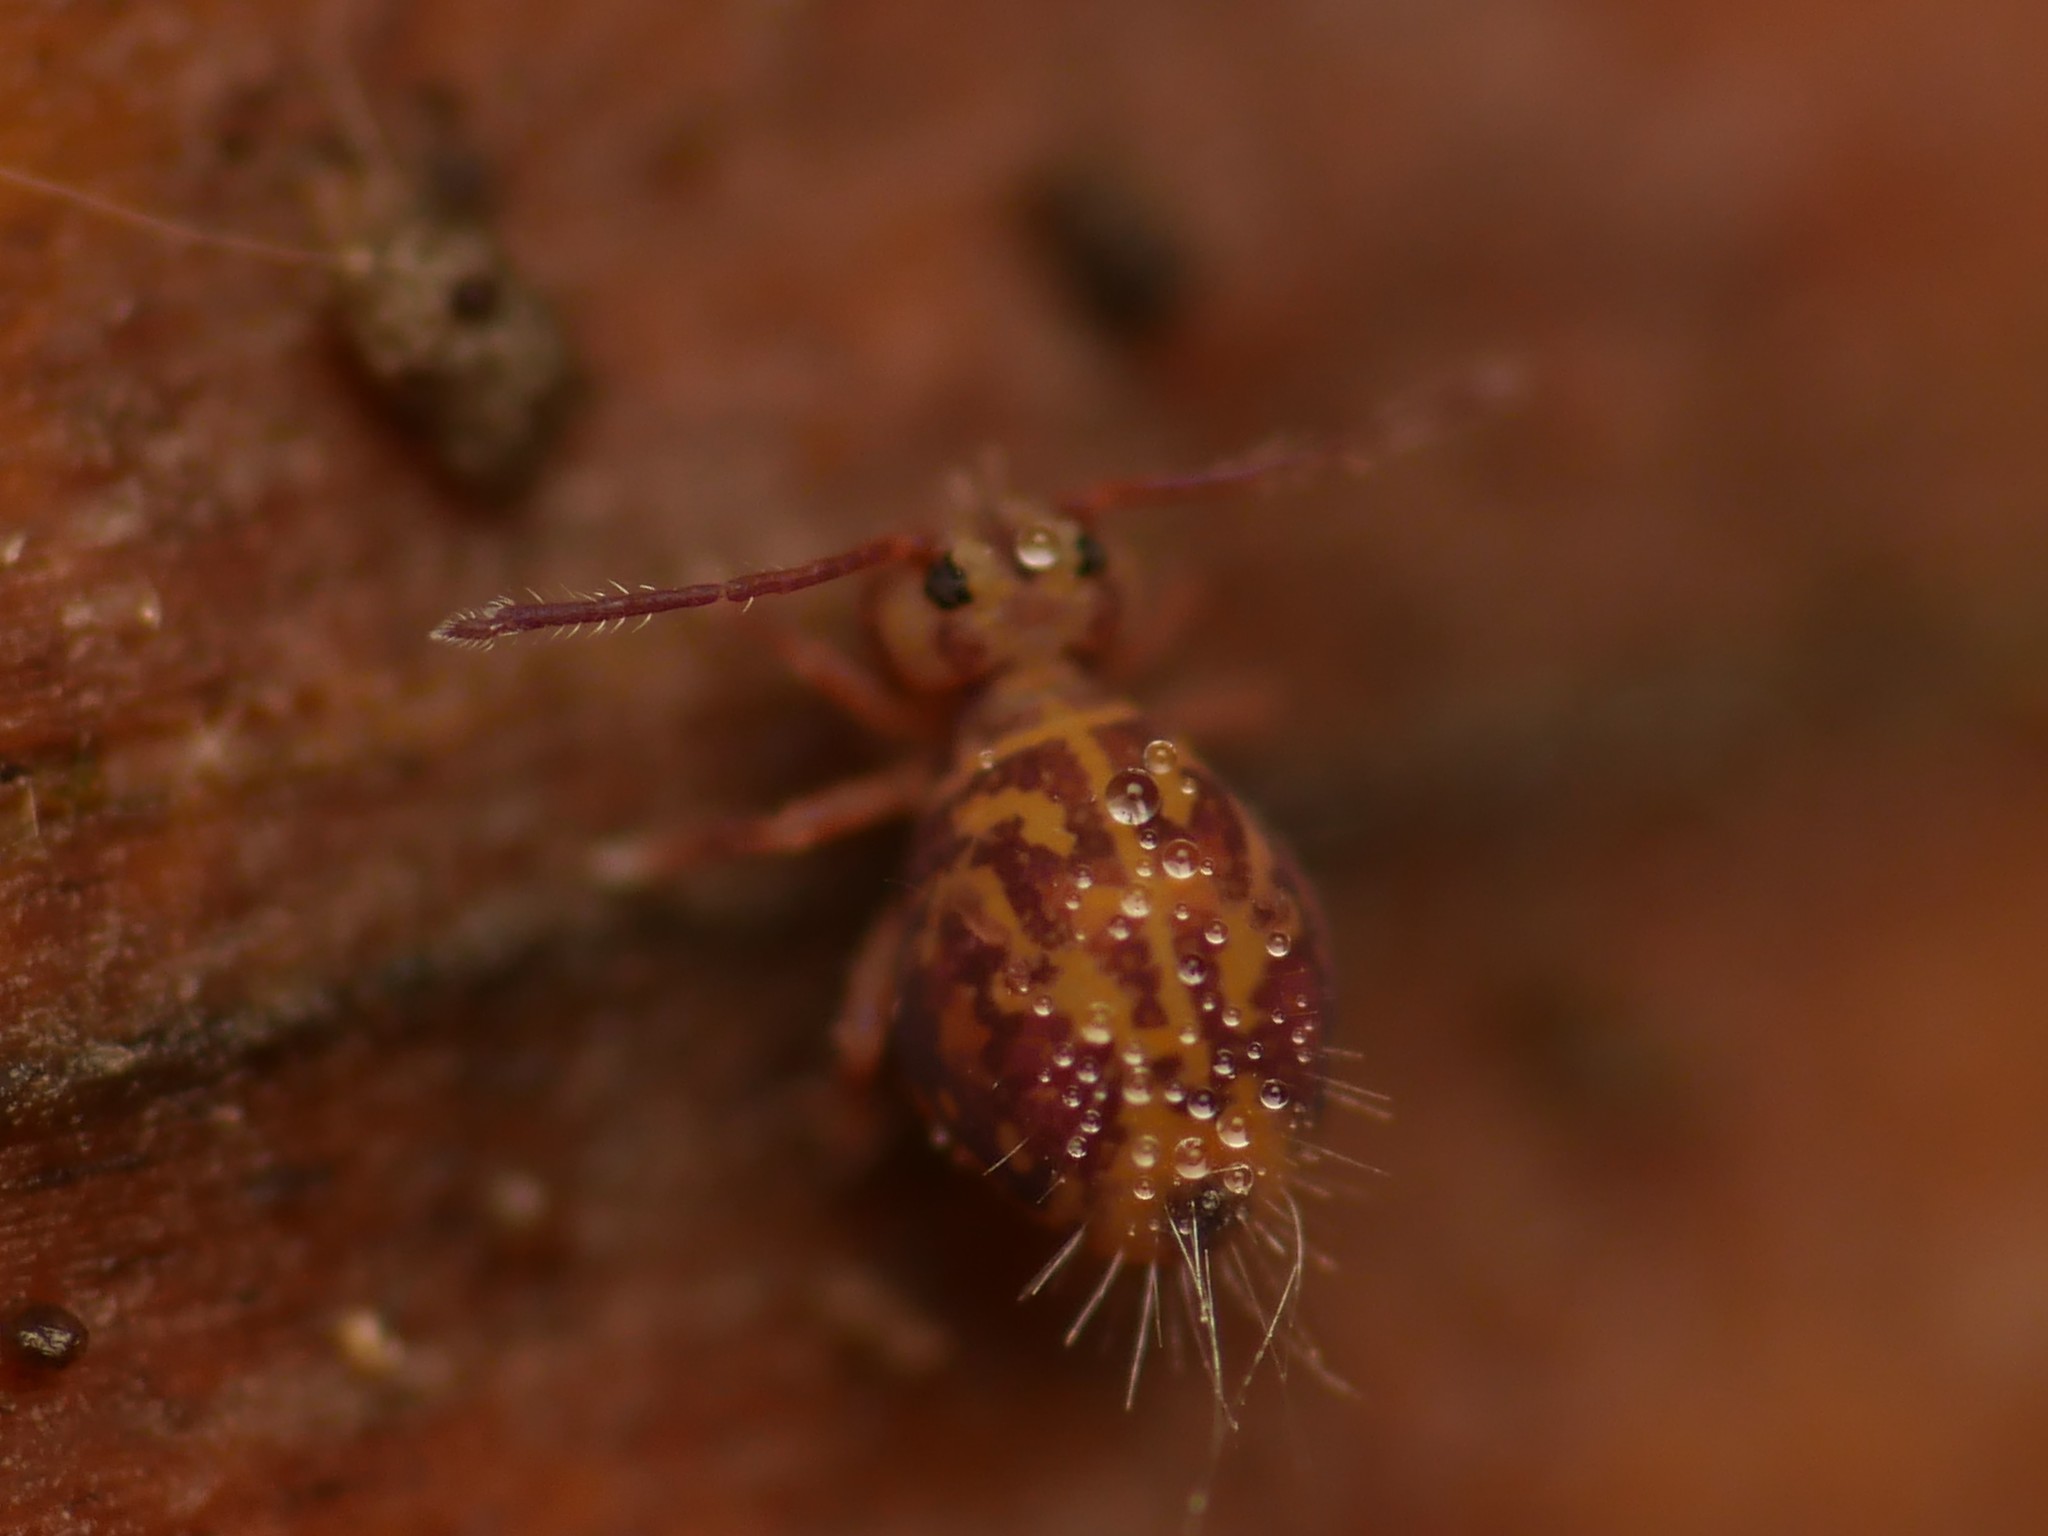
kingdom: Animalia
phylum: Arthropoda
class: Collembola
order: Symphypleona
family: Dicyrtomidae
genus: Dicyrtomina
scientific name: Dicyrtomina ornata
